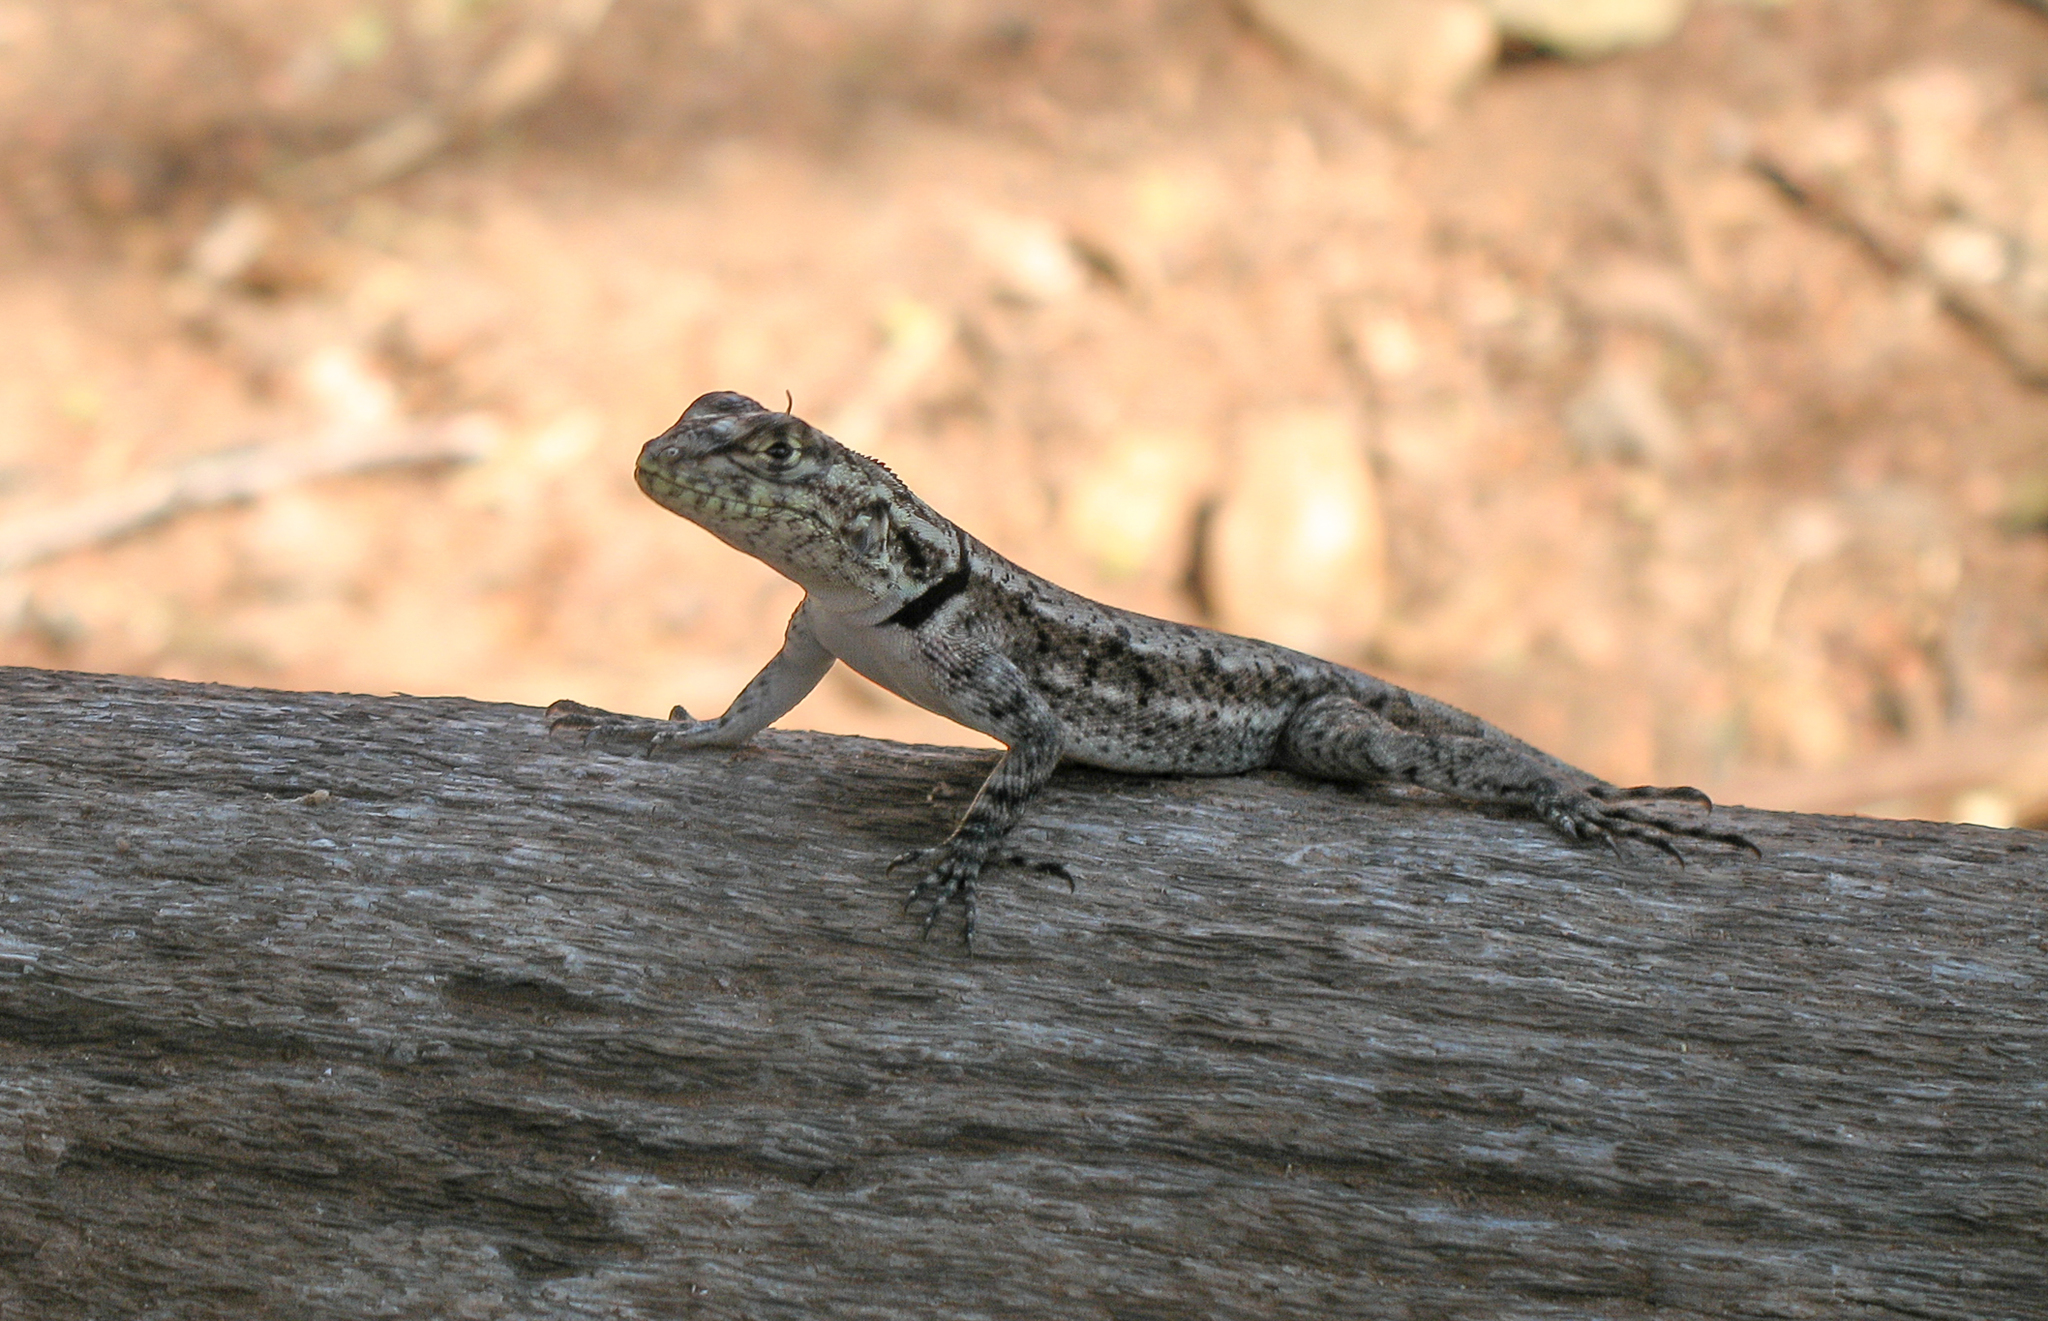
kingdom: Animalia
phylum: Chordata
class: Squamata
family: Tropiduridae
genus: Tropidurus
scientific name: Tropidurus lagunablanca
